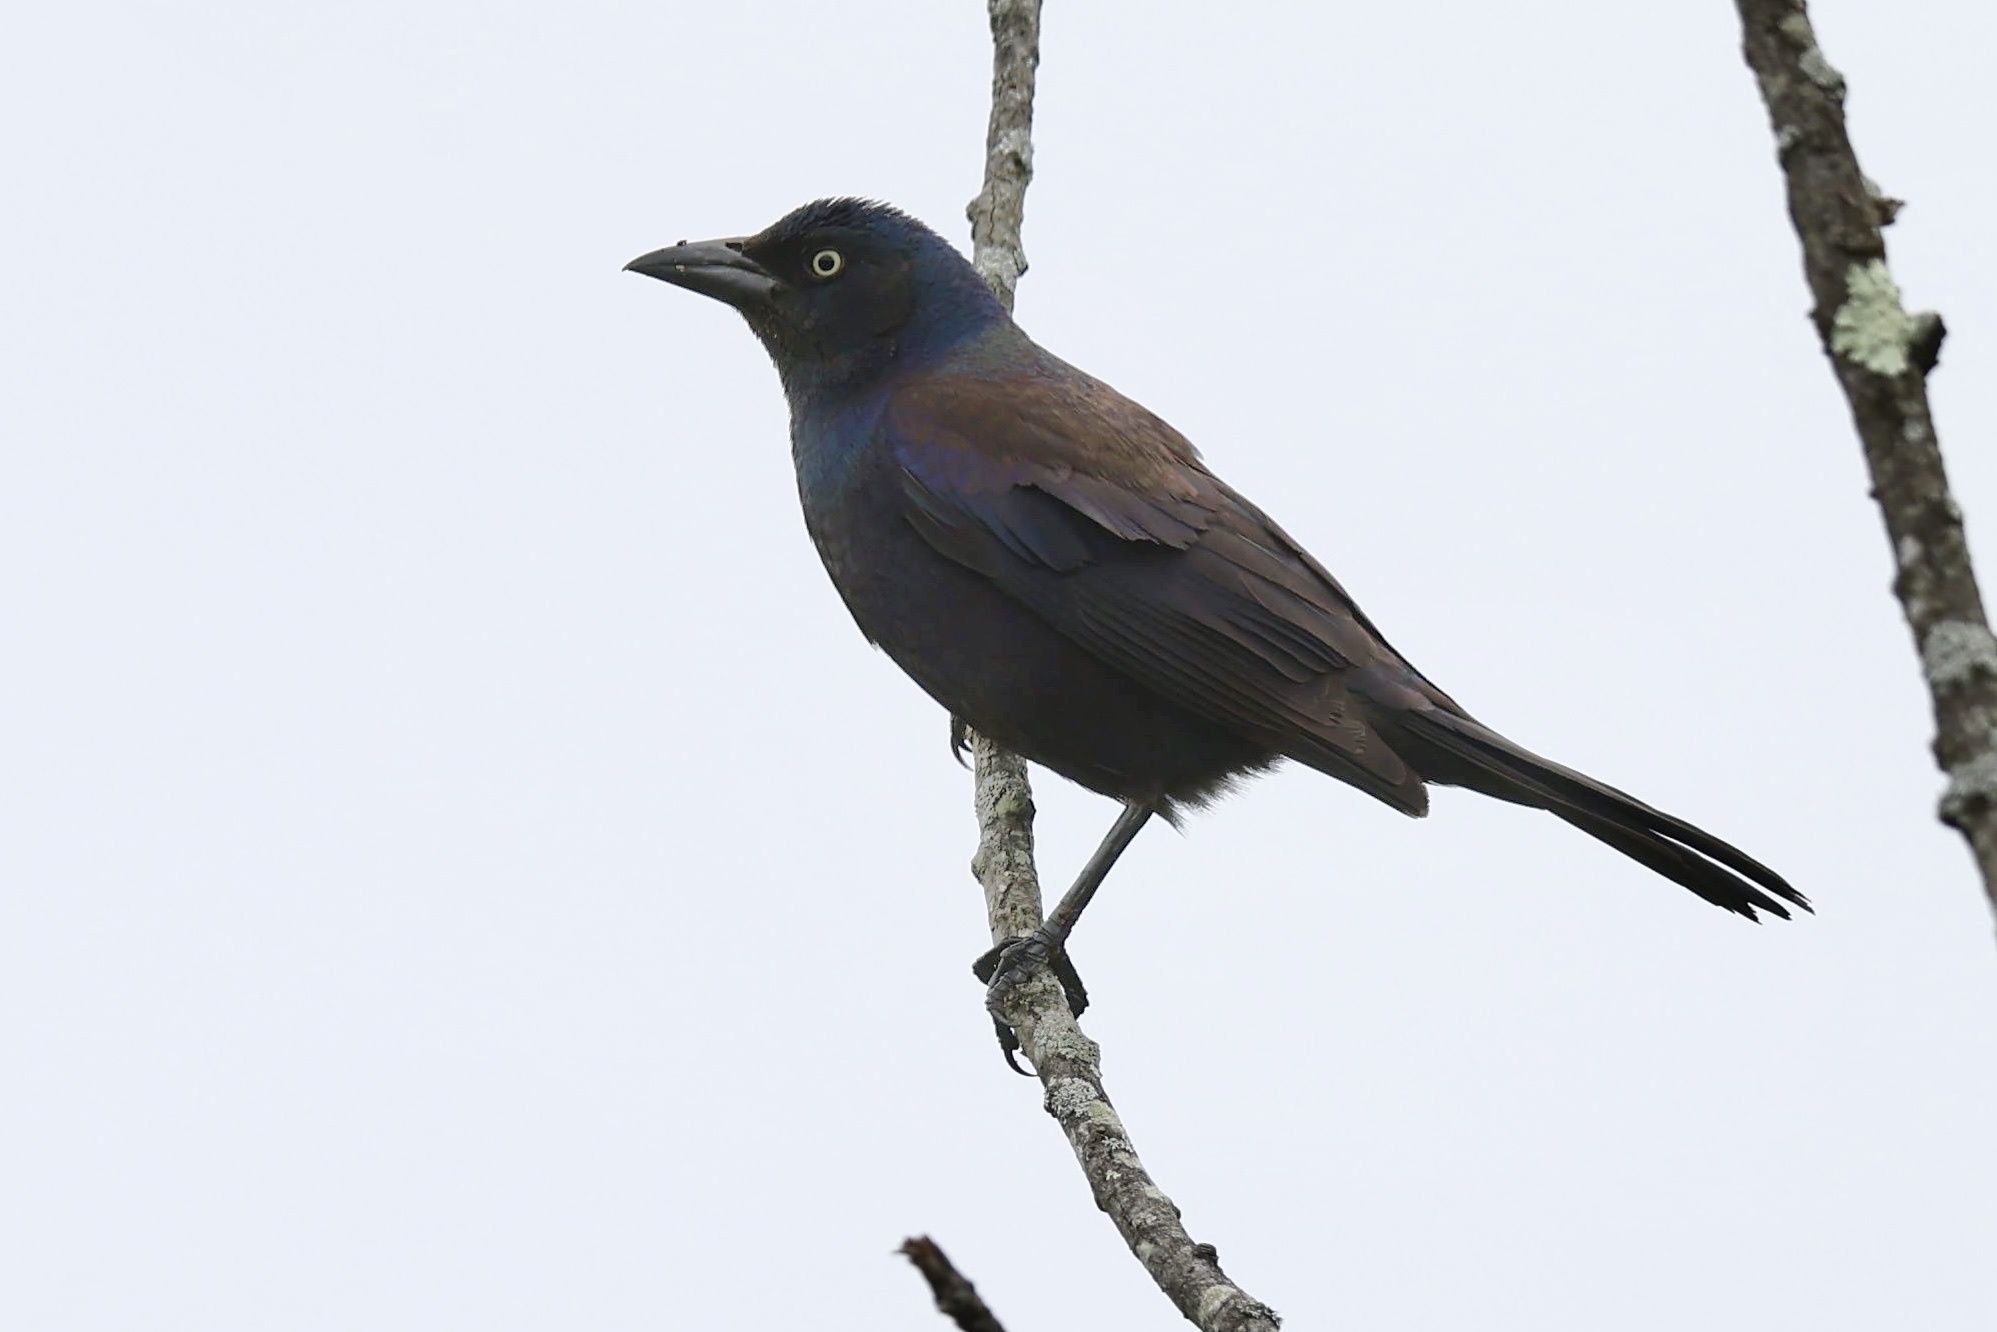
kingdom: Animalia
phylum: Chordata
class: Aves
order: Passeriformes
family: Icteridae
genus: Quiscalus
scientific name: Quiscalus quiscula
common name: Common grackle
